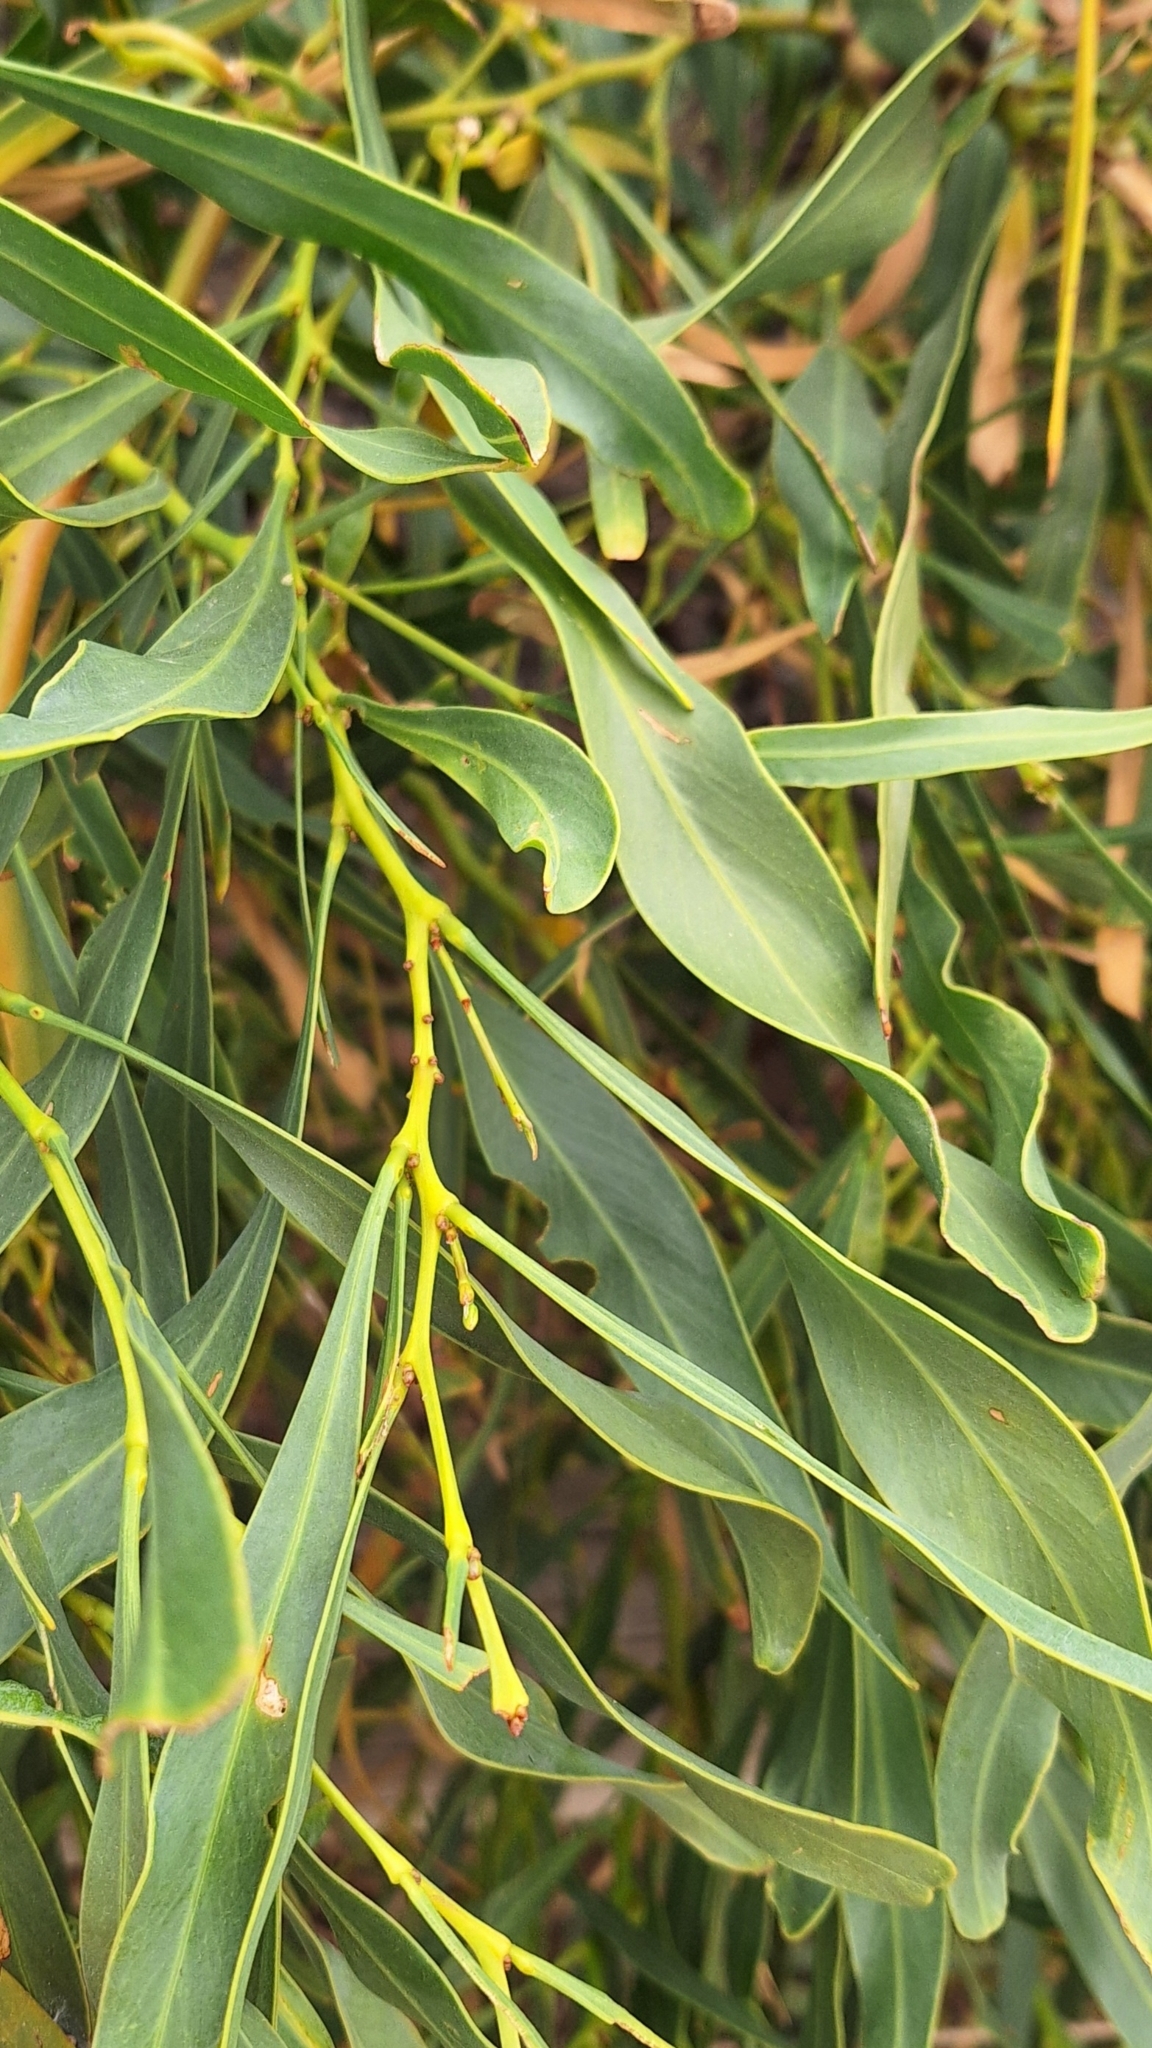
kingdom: Plantae
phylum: Tracheophyta
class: Magnoliopsida
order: Fabales
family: Fabaceae
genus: Acacia
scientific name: Acacia saligna
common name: Orange wattle
